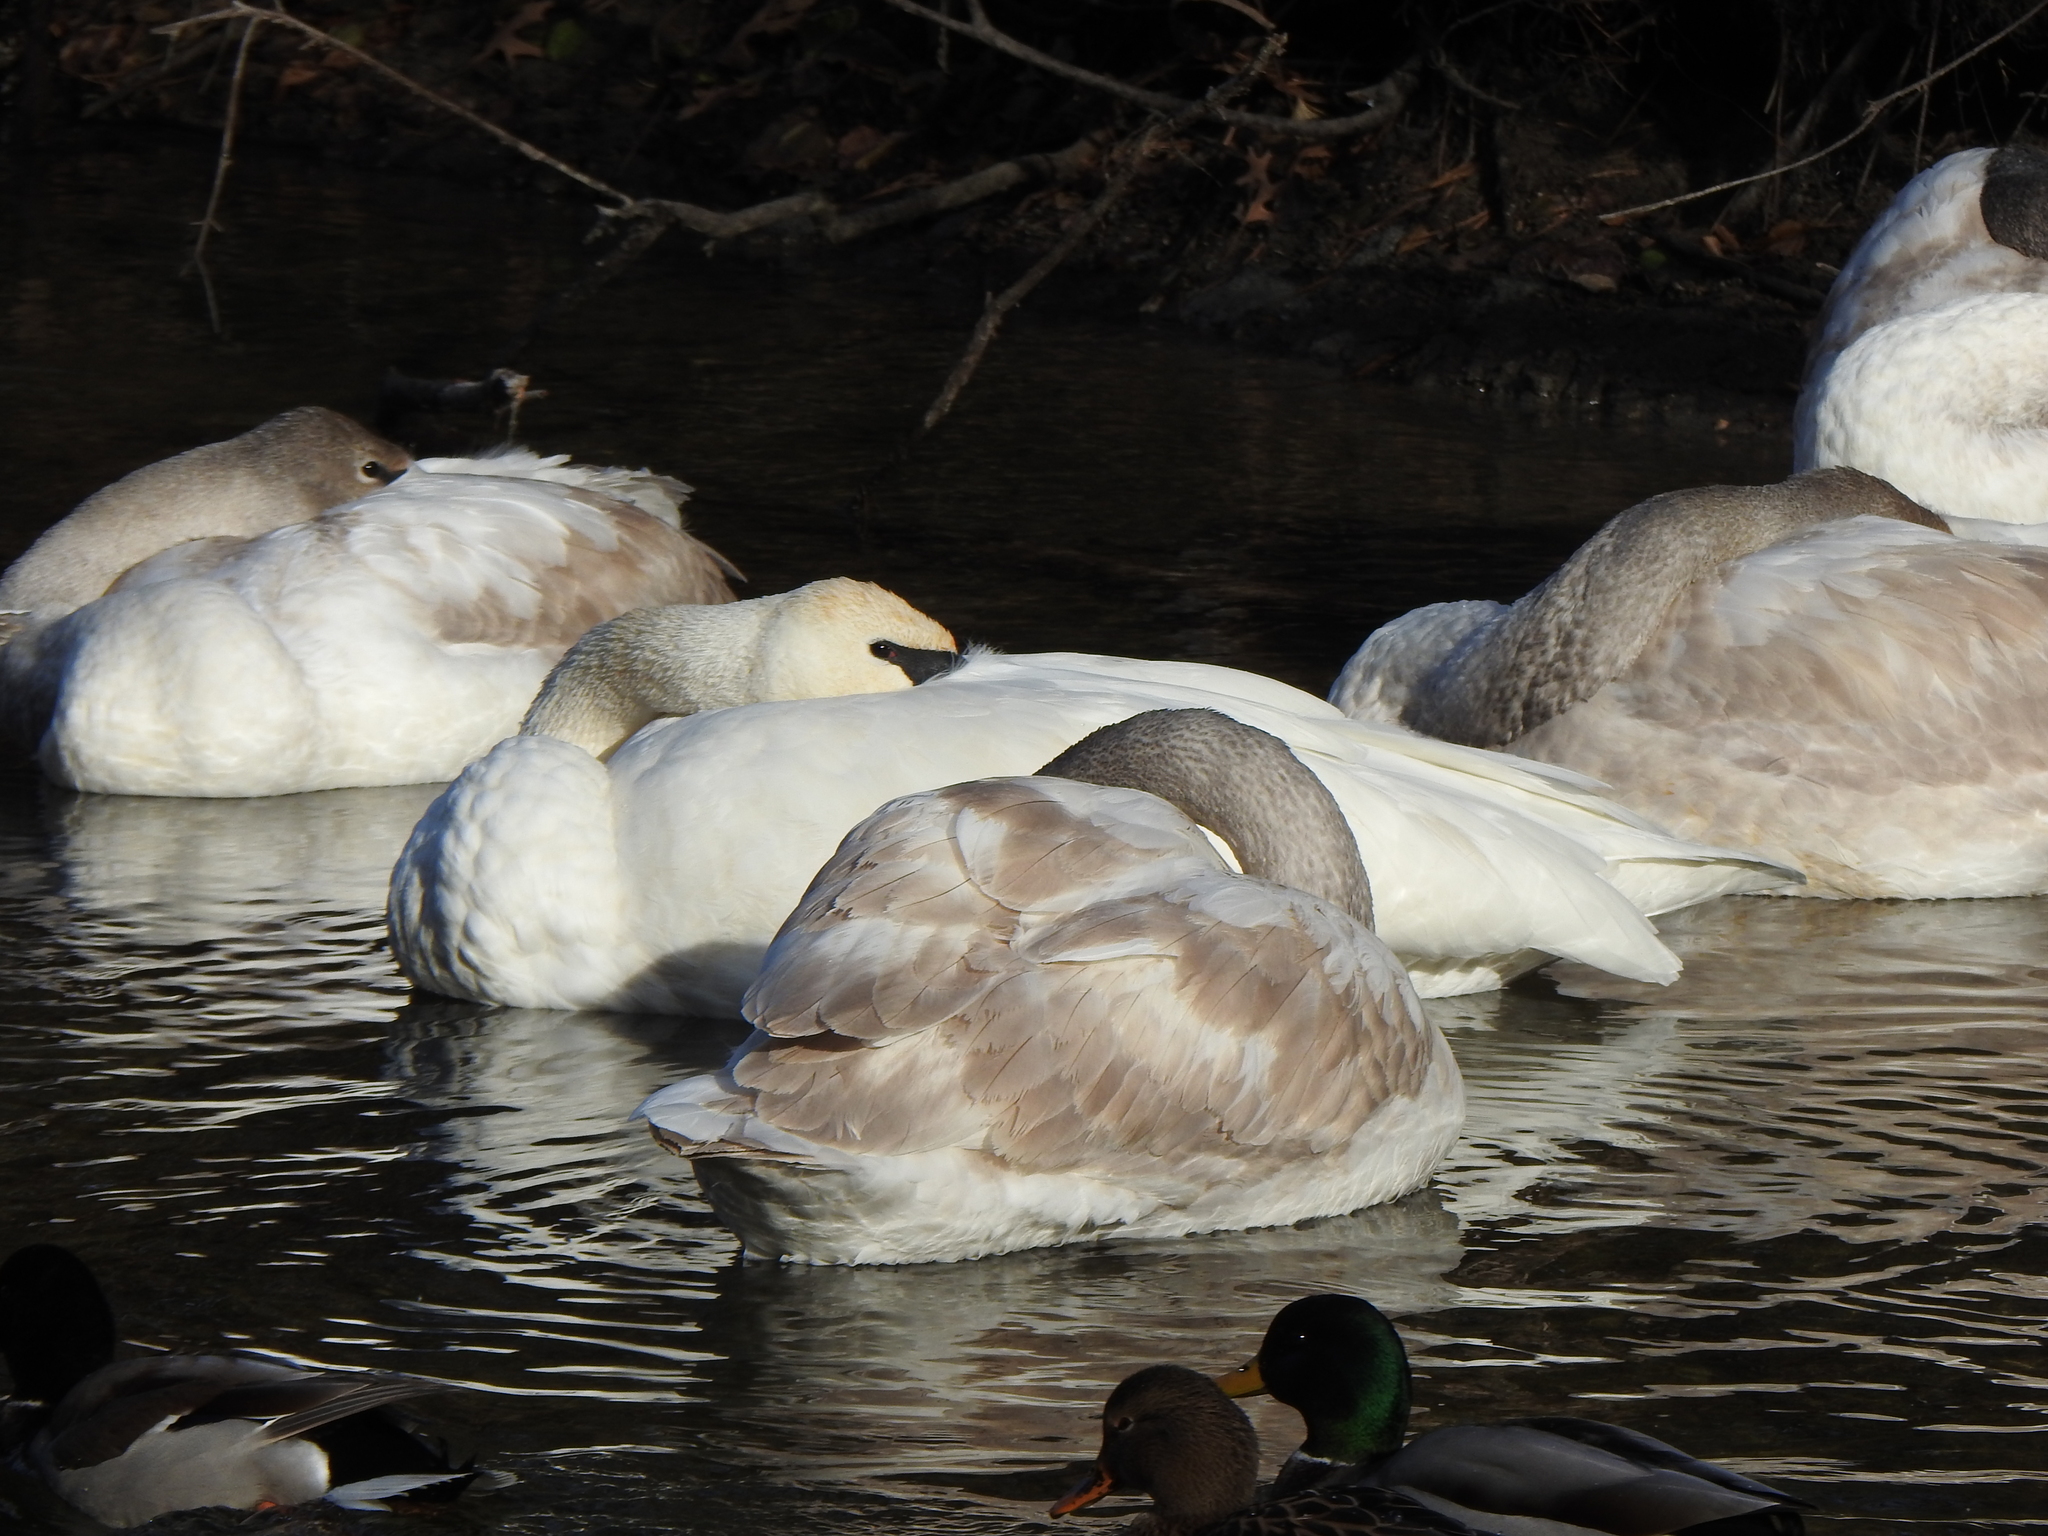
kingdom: Animalia
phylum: Chordata
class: Aves
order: Anseriformes
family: Anatidae
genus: Cygnus
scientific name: Cygnus buccinator
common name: Trumpeter swan
